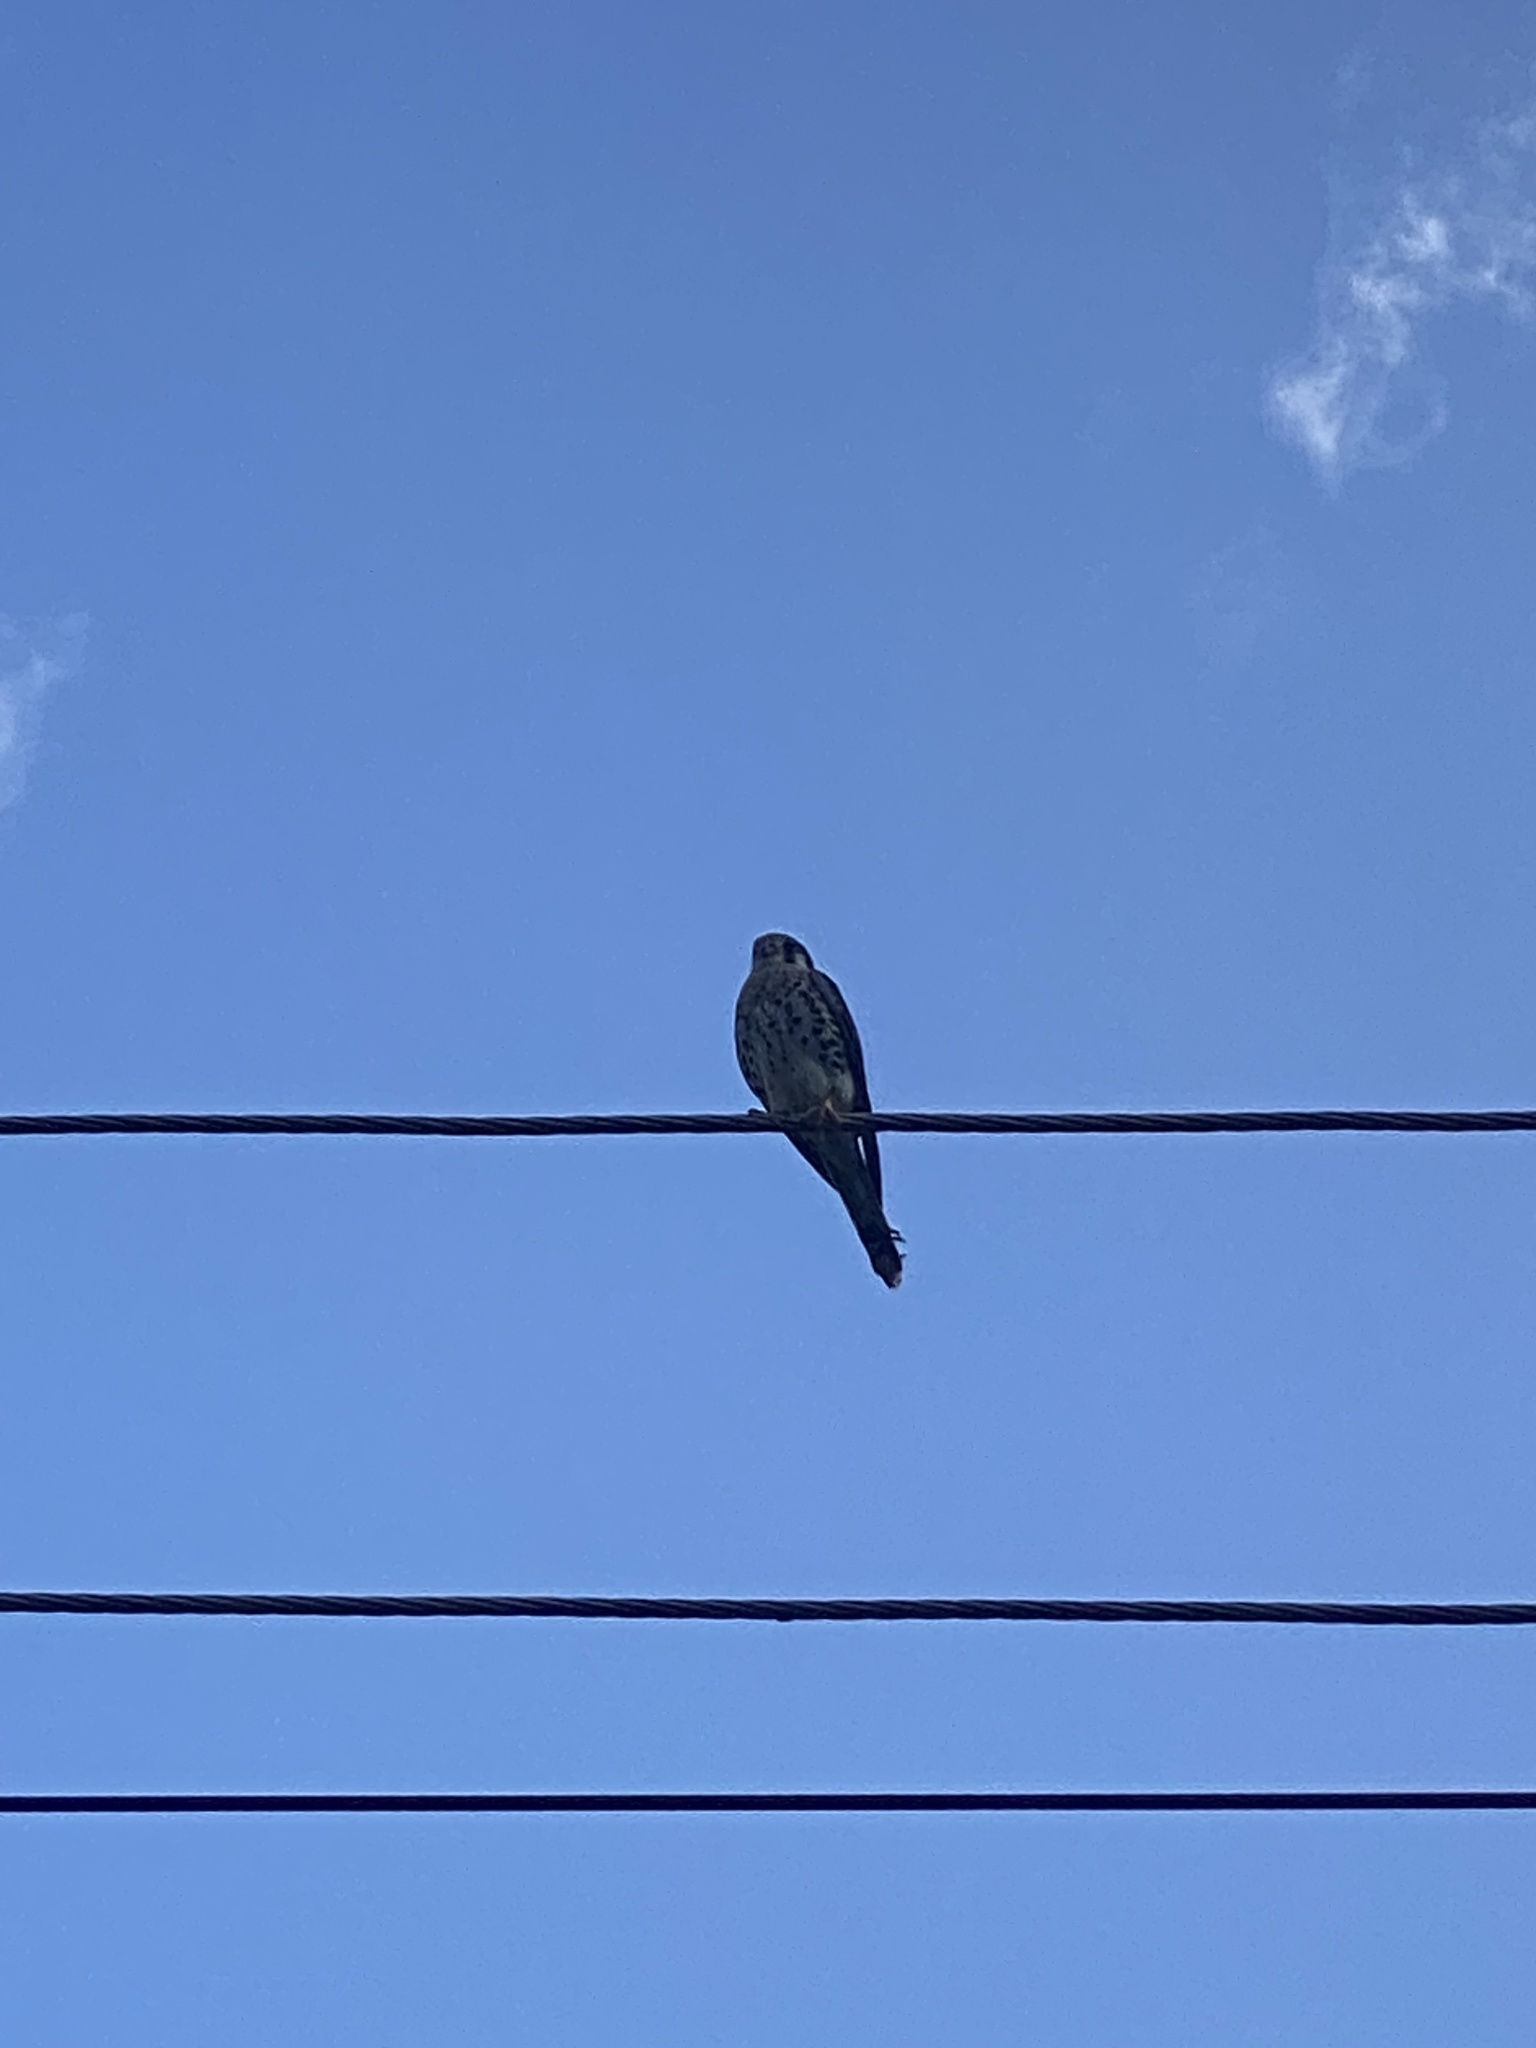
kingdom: Animalia
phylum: Chordata
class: Aves
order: Falconiformes
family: Falconidae
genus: Falco
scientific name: Falco sparverius
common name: American kestrel
